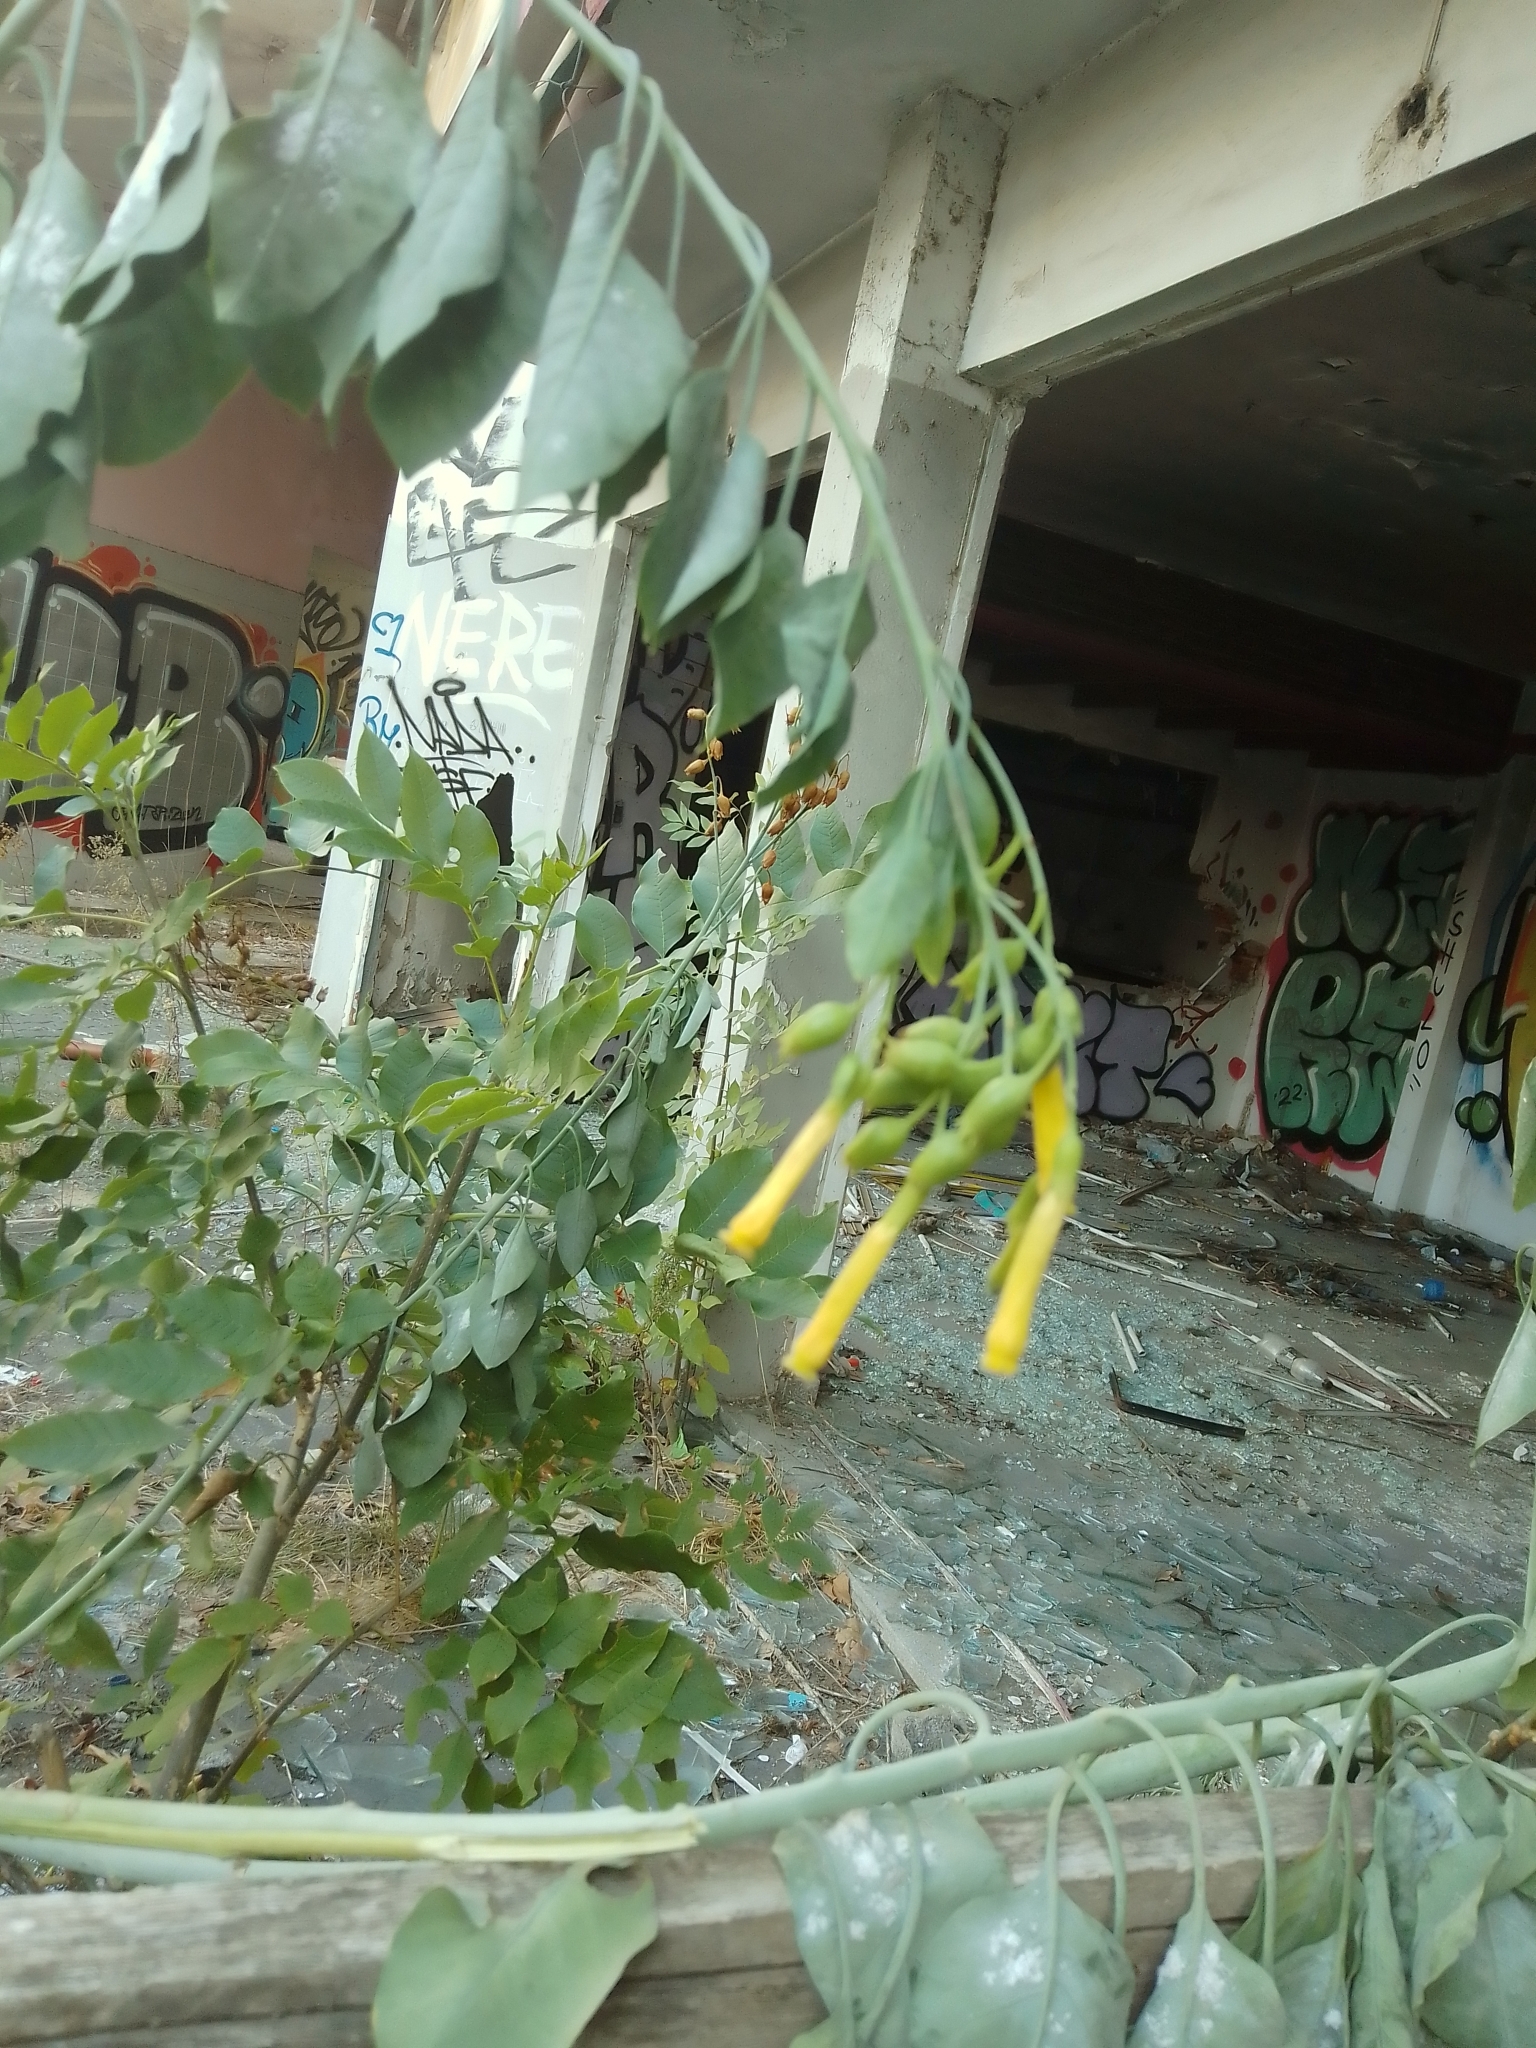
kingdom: Plantae
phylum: Tracheophyta
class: Magnoliopsida
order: Solanales
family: Solanaceae
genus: Nicotiana
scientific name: Nicotiana glauca
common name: Tree tobacco
